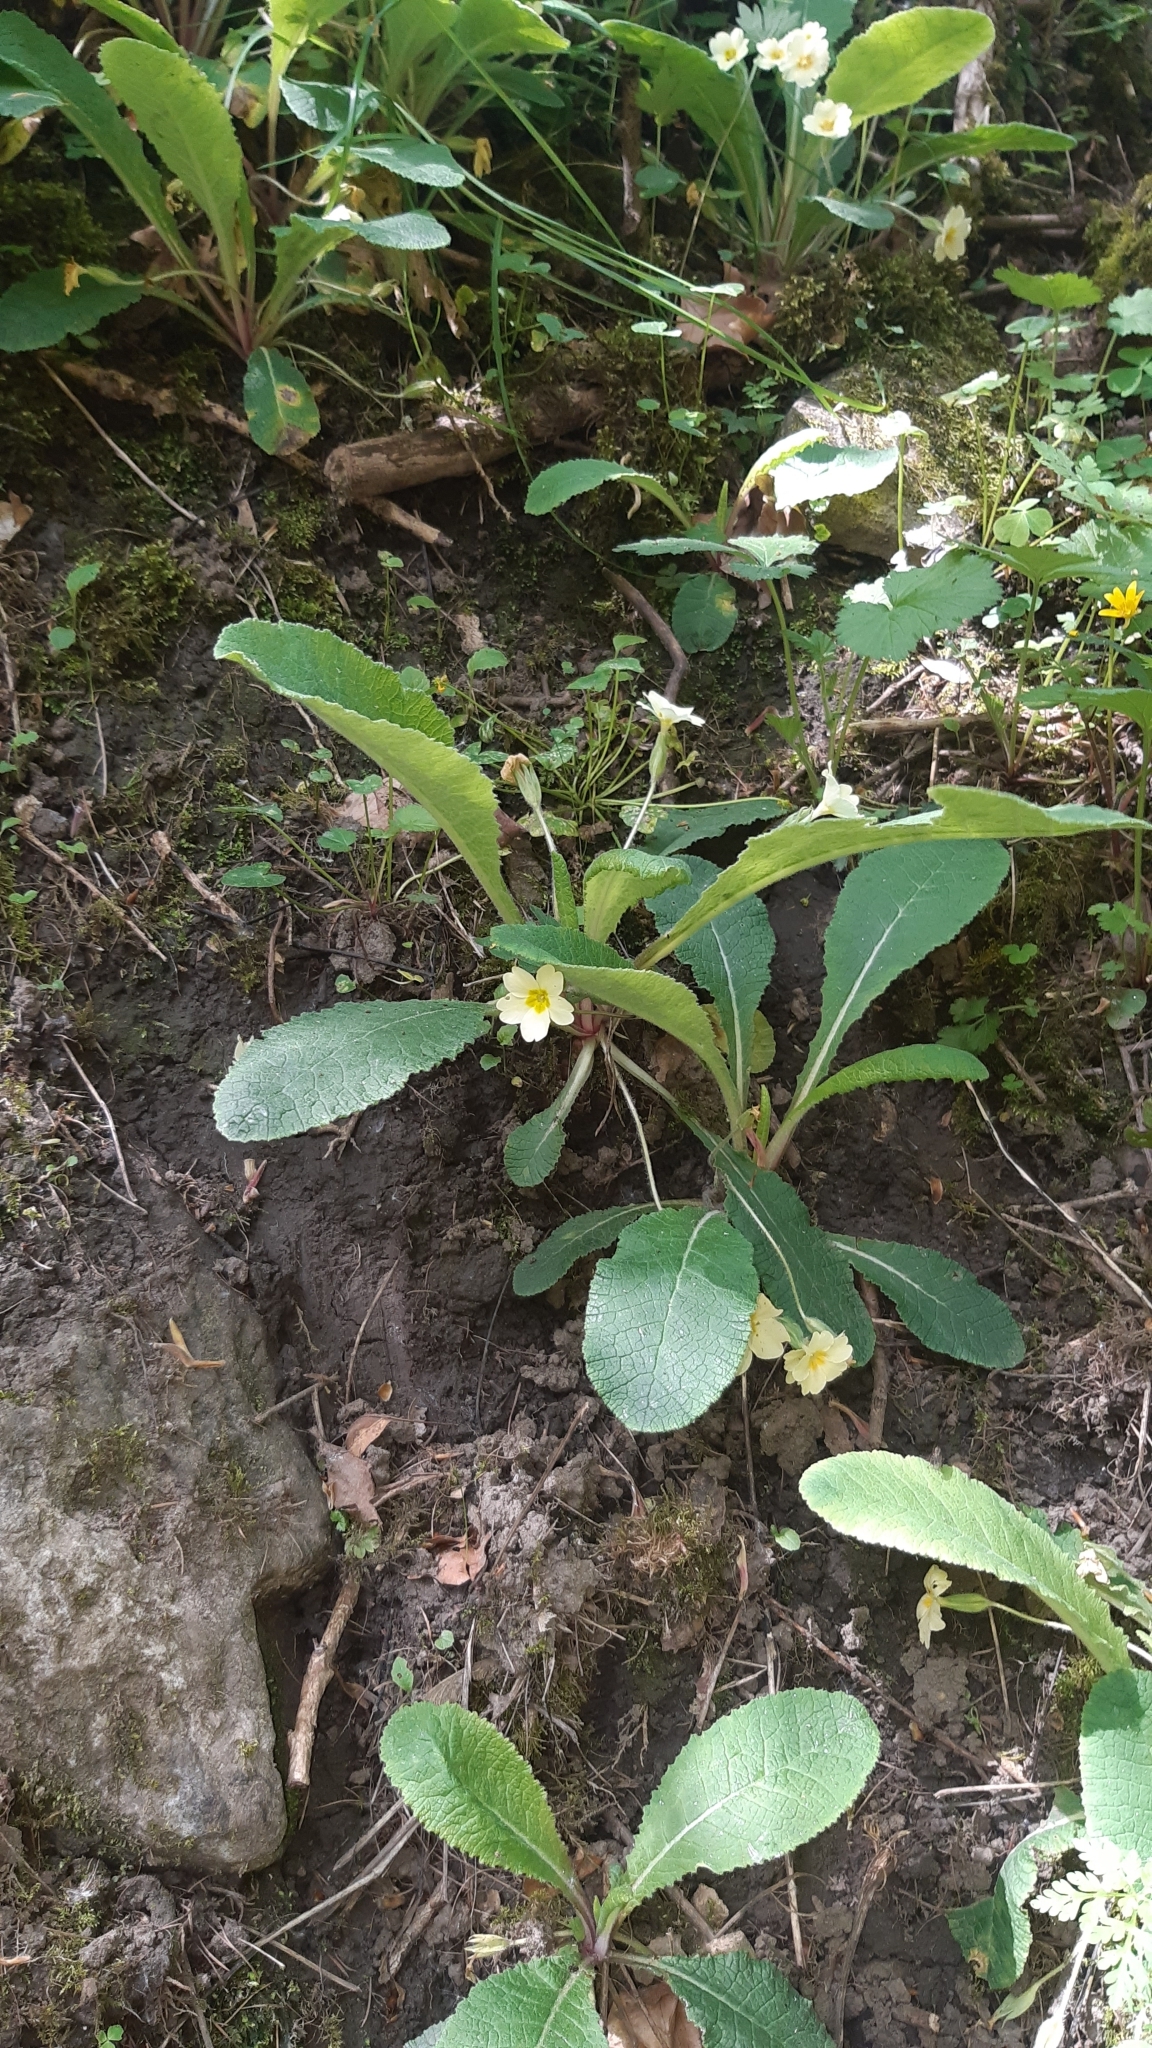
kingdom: Plantae
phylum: Tracheophyta
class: Magnoliopsida
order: Ericales
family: Primulaceae
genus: Primula
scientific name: Primula vulgaris
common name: Primrose
